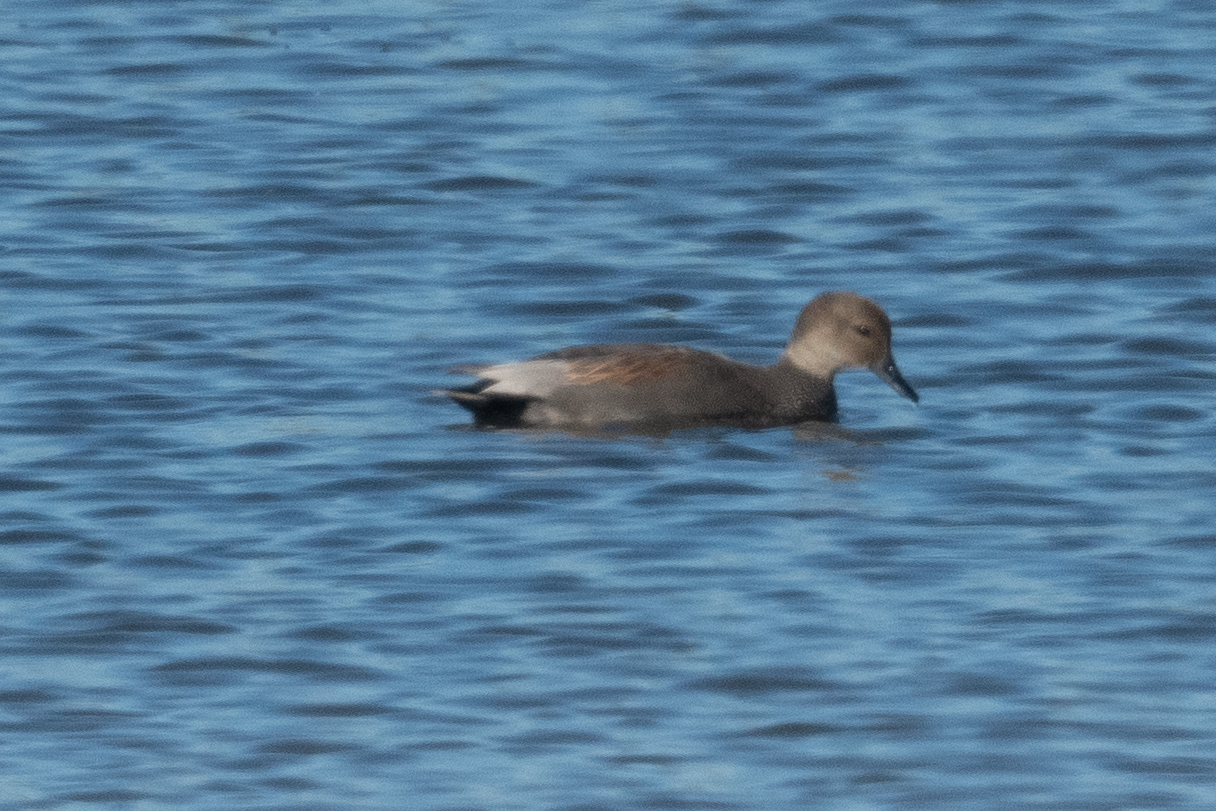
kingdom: Animalia
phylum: Chordata
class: Aves
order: Anseriformes
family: Anatidae
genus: Mareca
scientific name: Mareca strepera
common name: Gadwall
